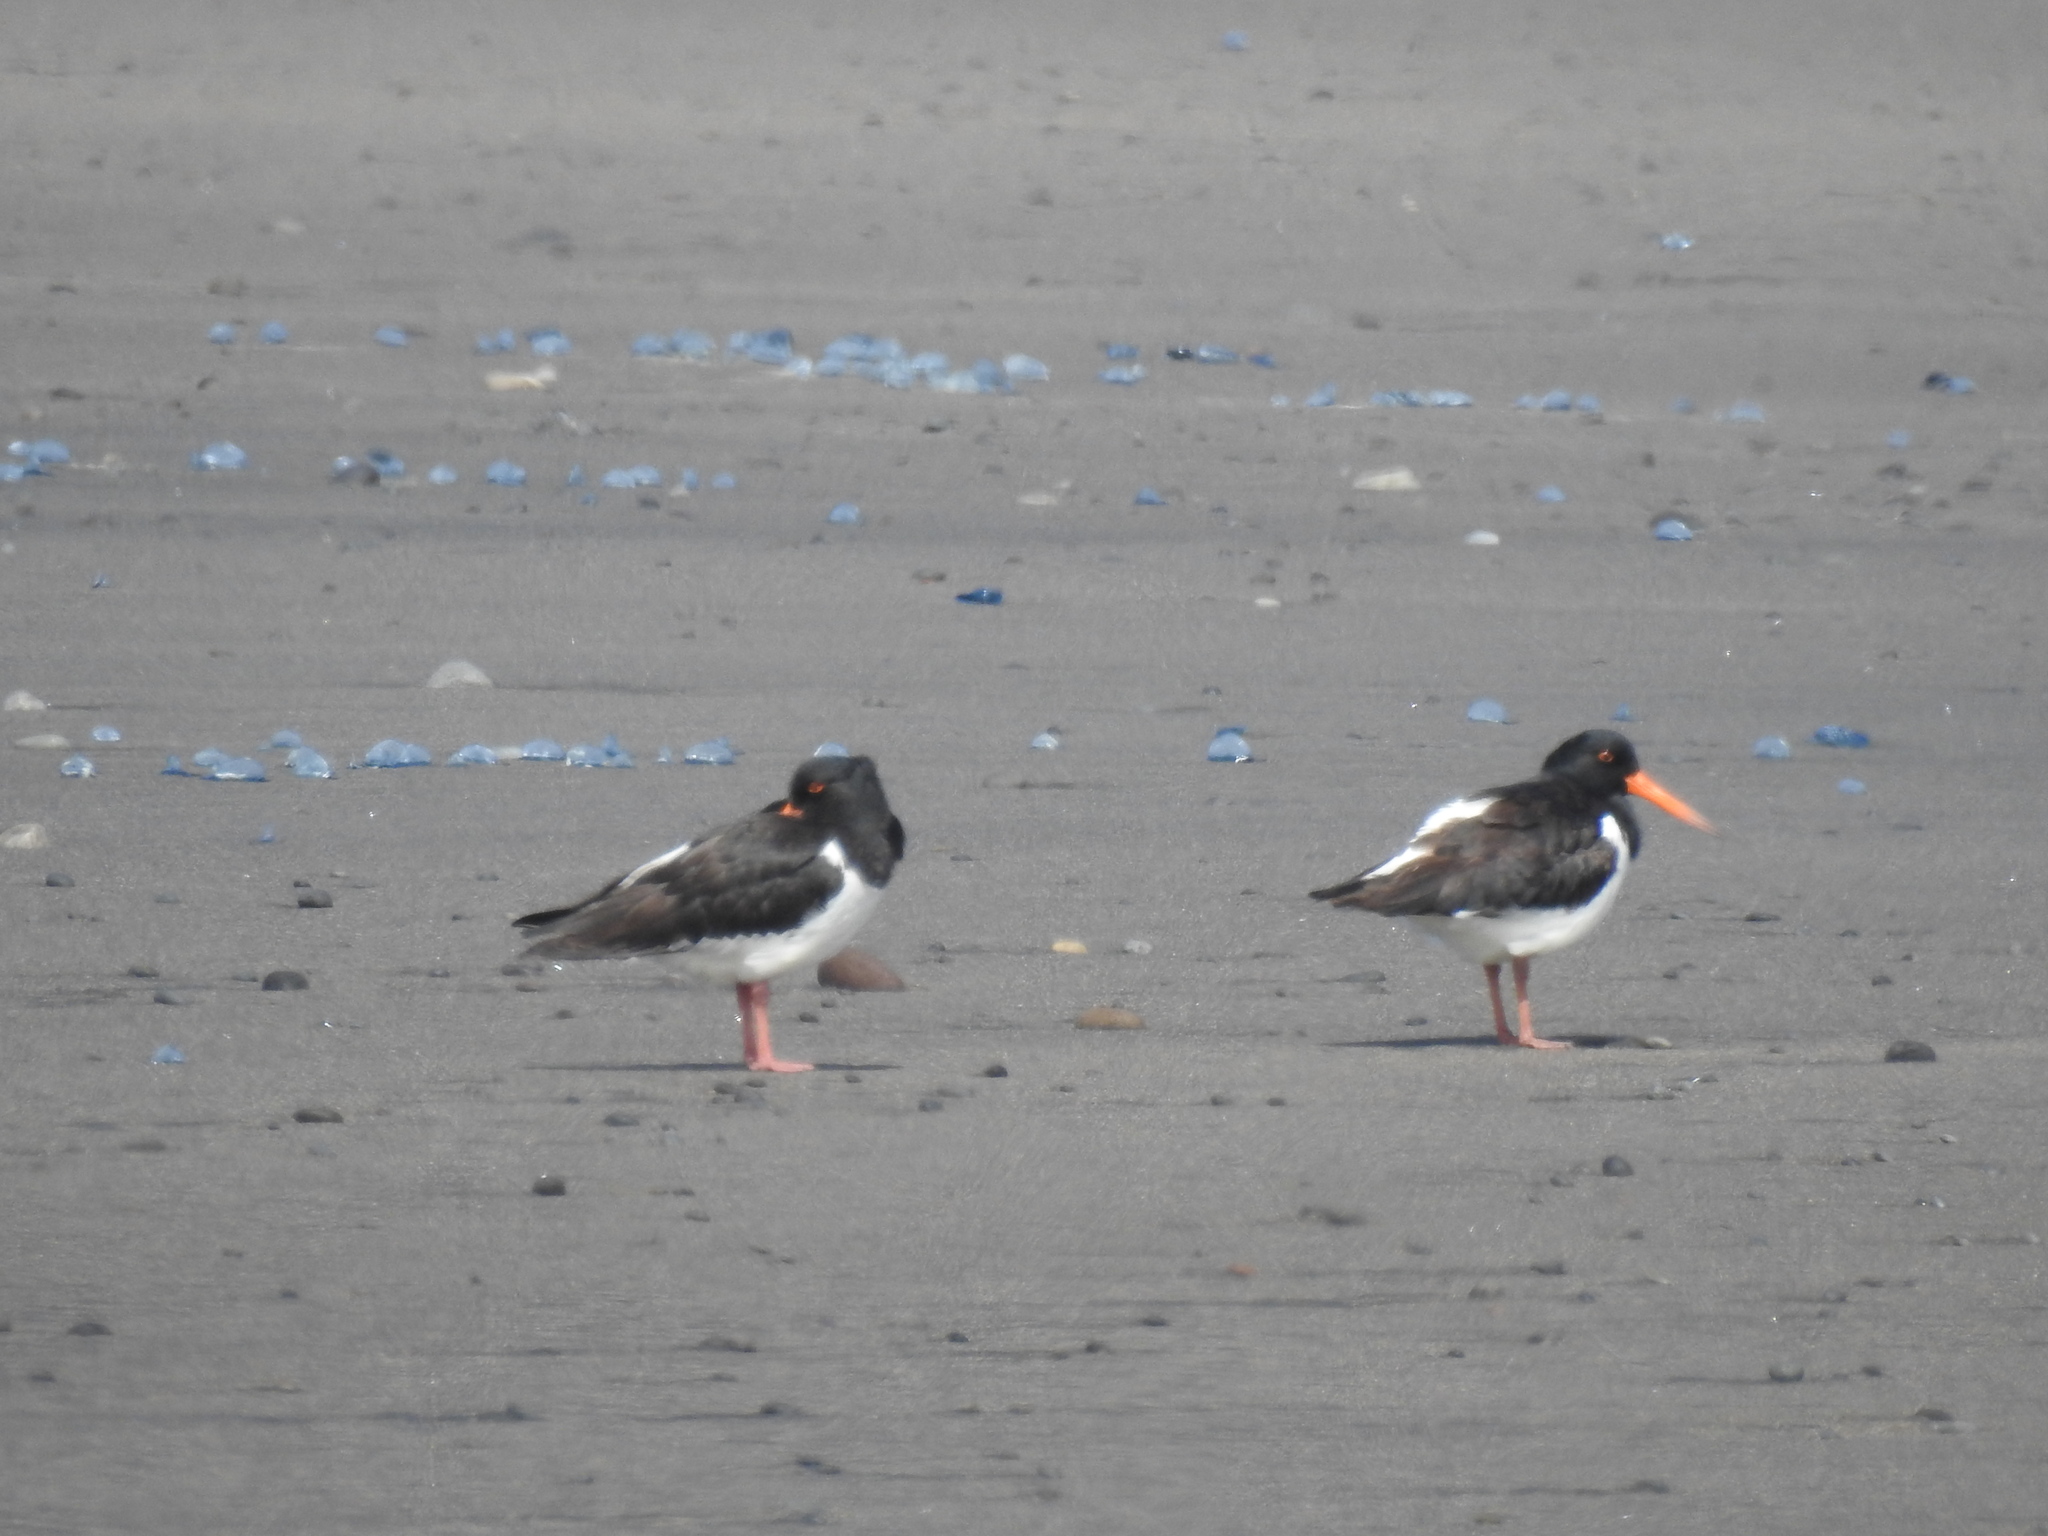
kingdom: Animalia
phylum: Chordata
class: Aves
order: Charadriiformes
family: Haematopodidae
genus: Haematopus
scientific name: Haematopus finschi
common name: South island oystercatcher
